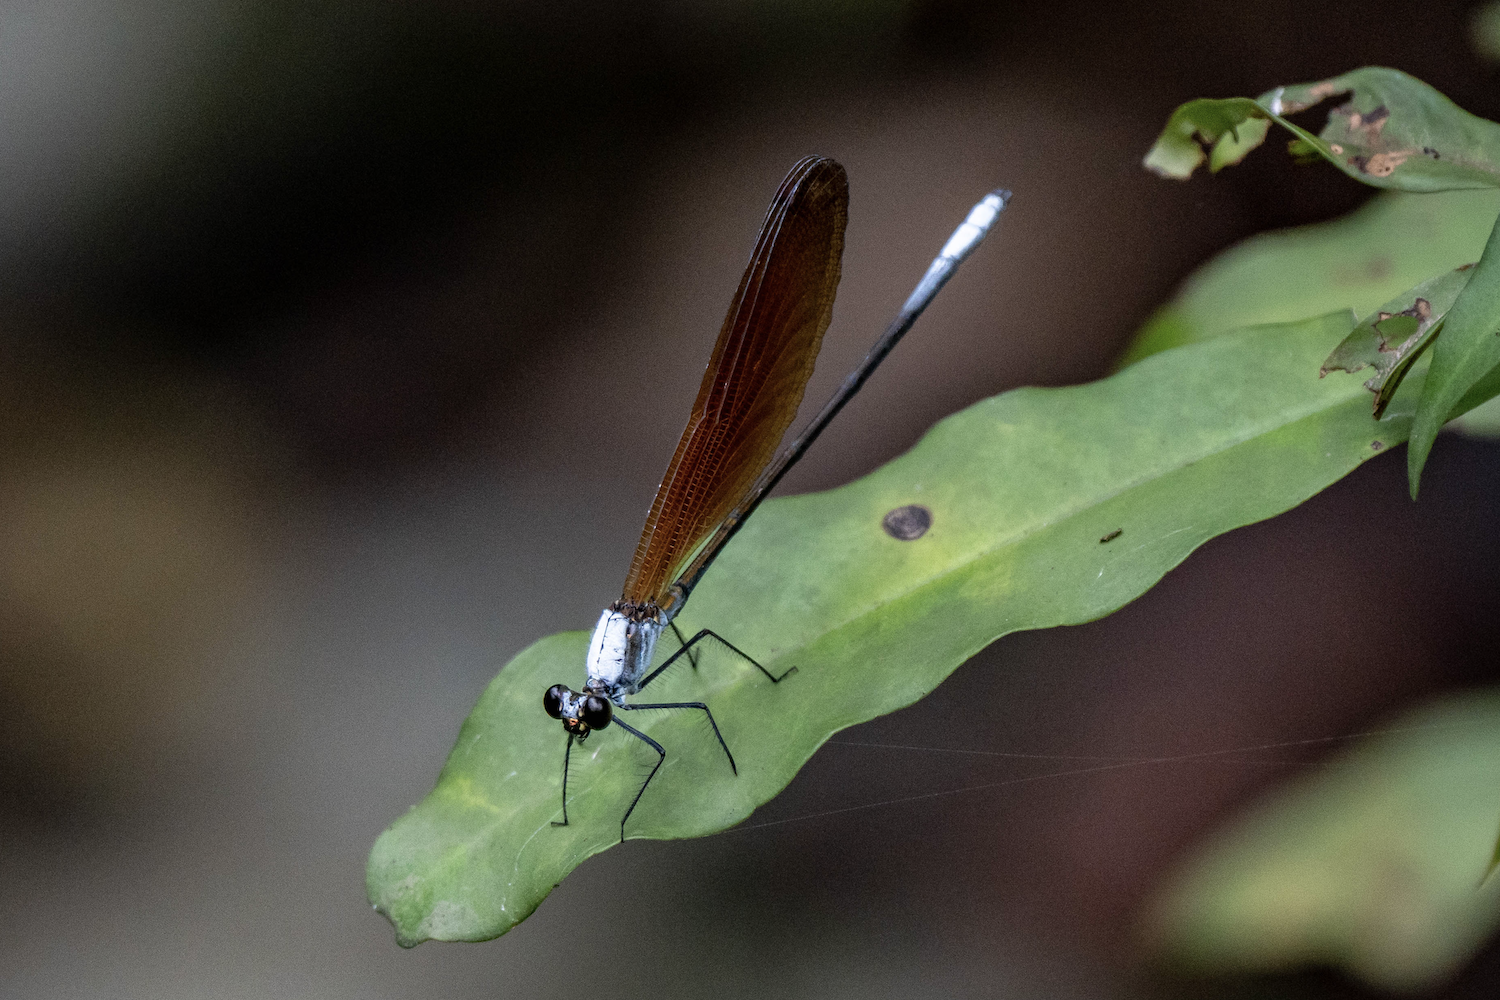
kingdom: Animalia
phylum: Arthropoda
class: Insecta
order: Odonata
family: Calopterygidae
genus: Mnais
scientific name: Mnais mneme
